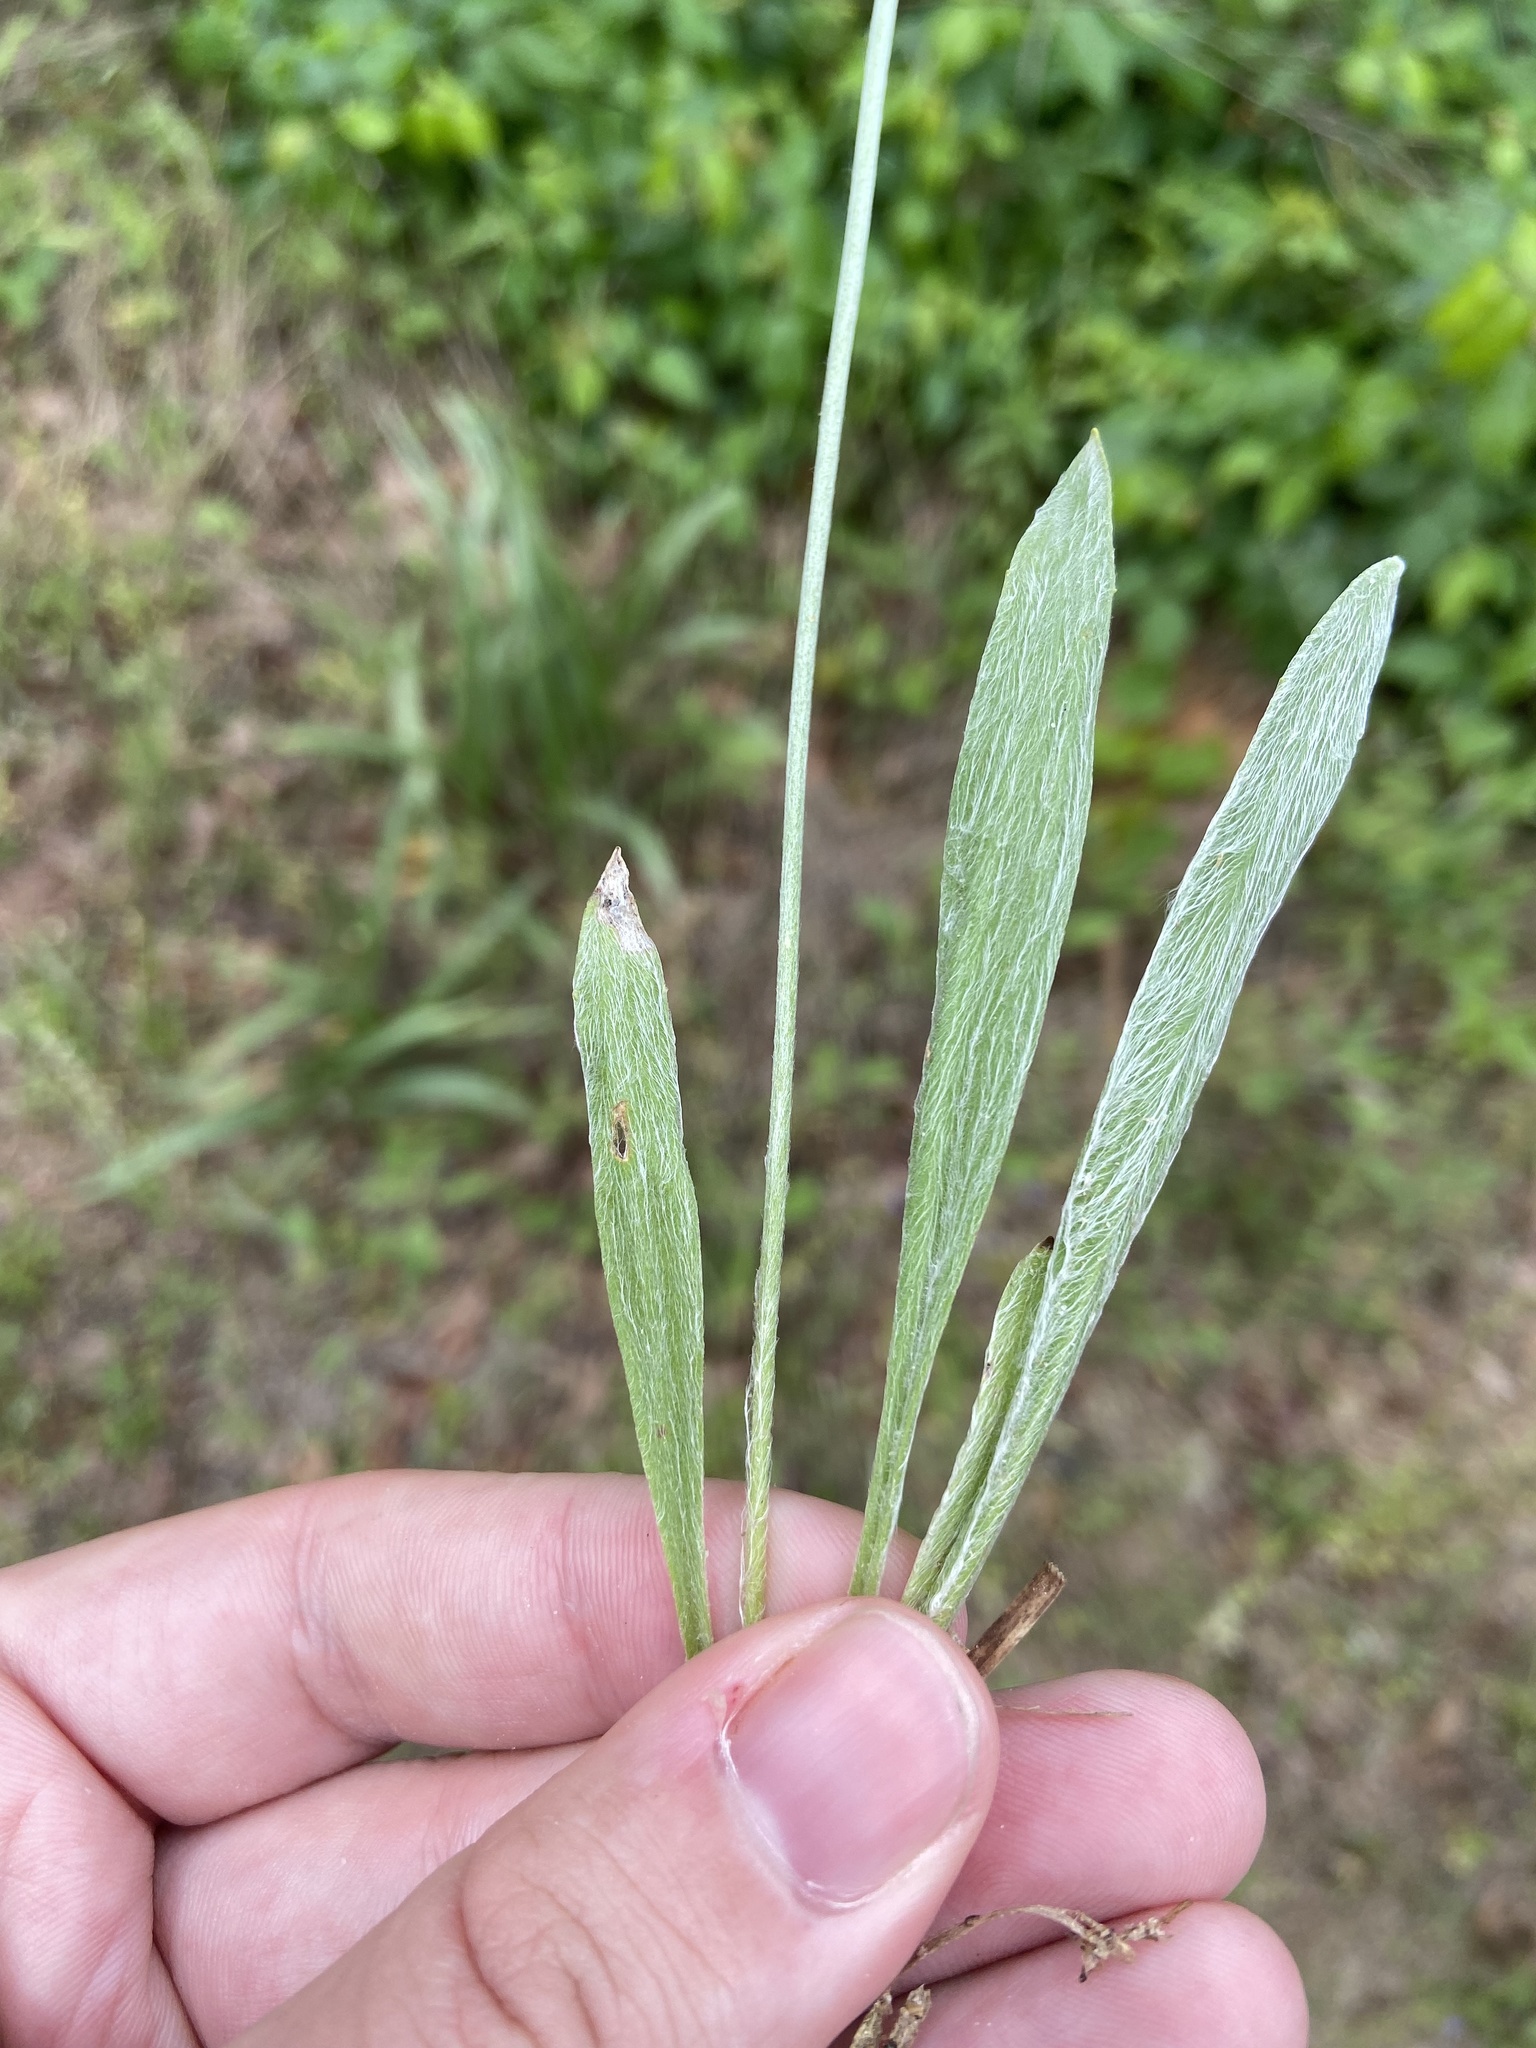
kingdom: Plantae
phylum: Tracheophyta
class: Magnoliopsida
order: Lamiales
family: Plantaginaceae
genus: Plantago
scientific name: Plantago wrightiana
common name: Wright's plantain
